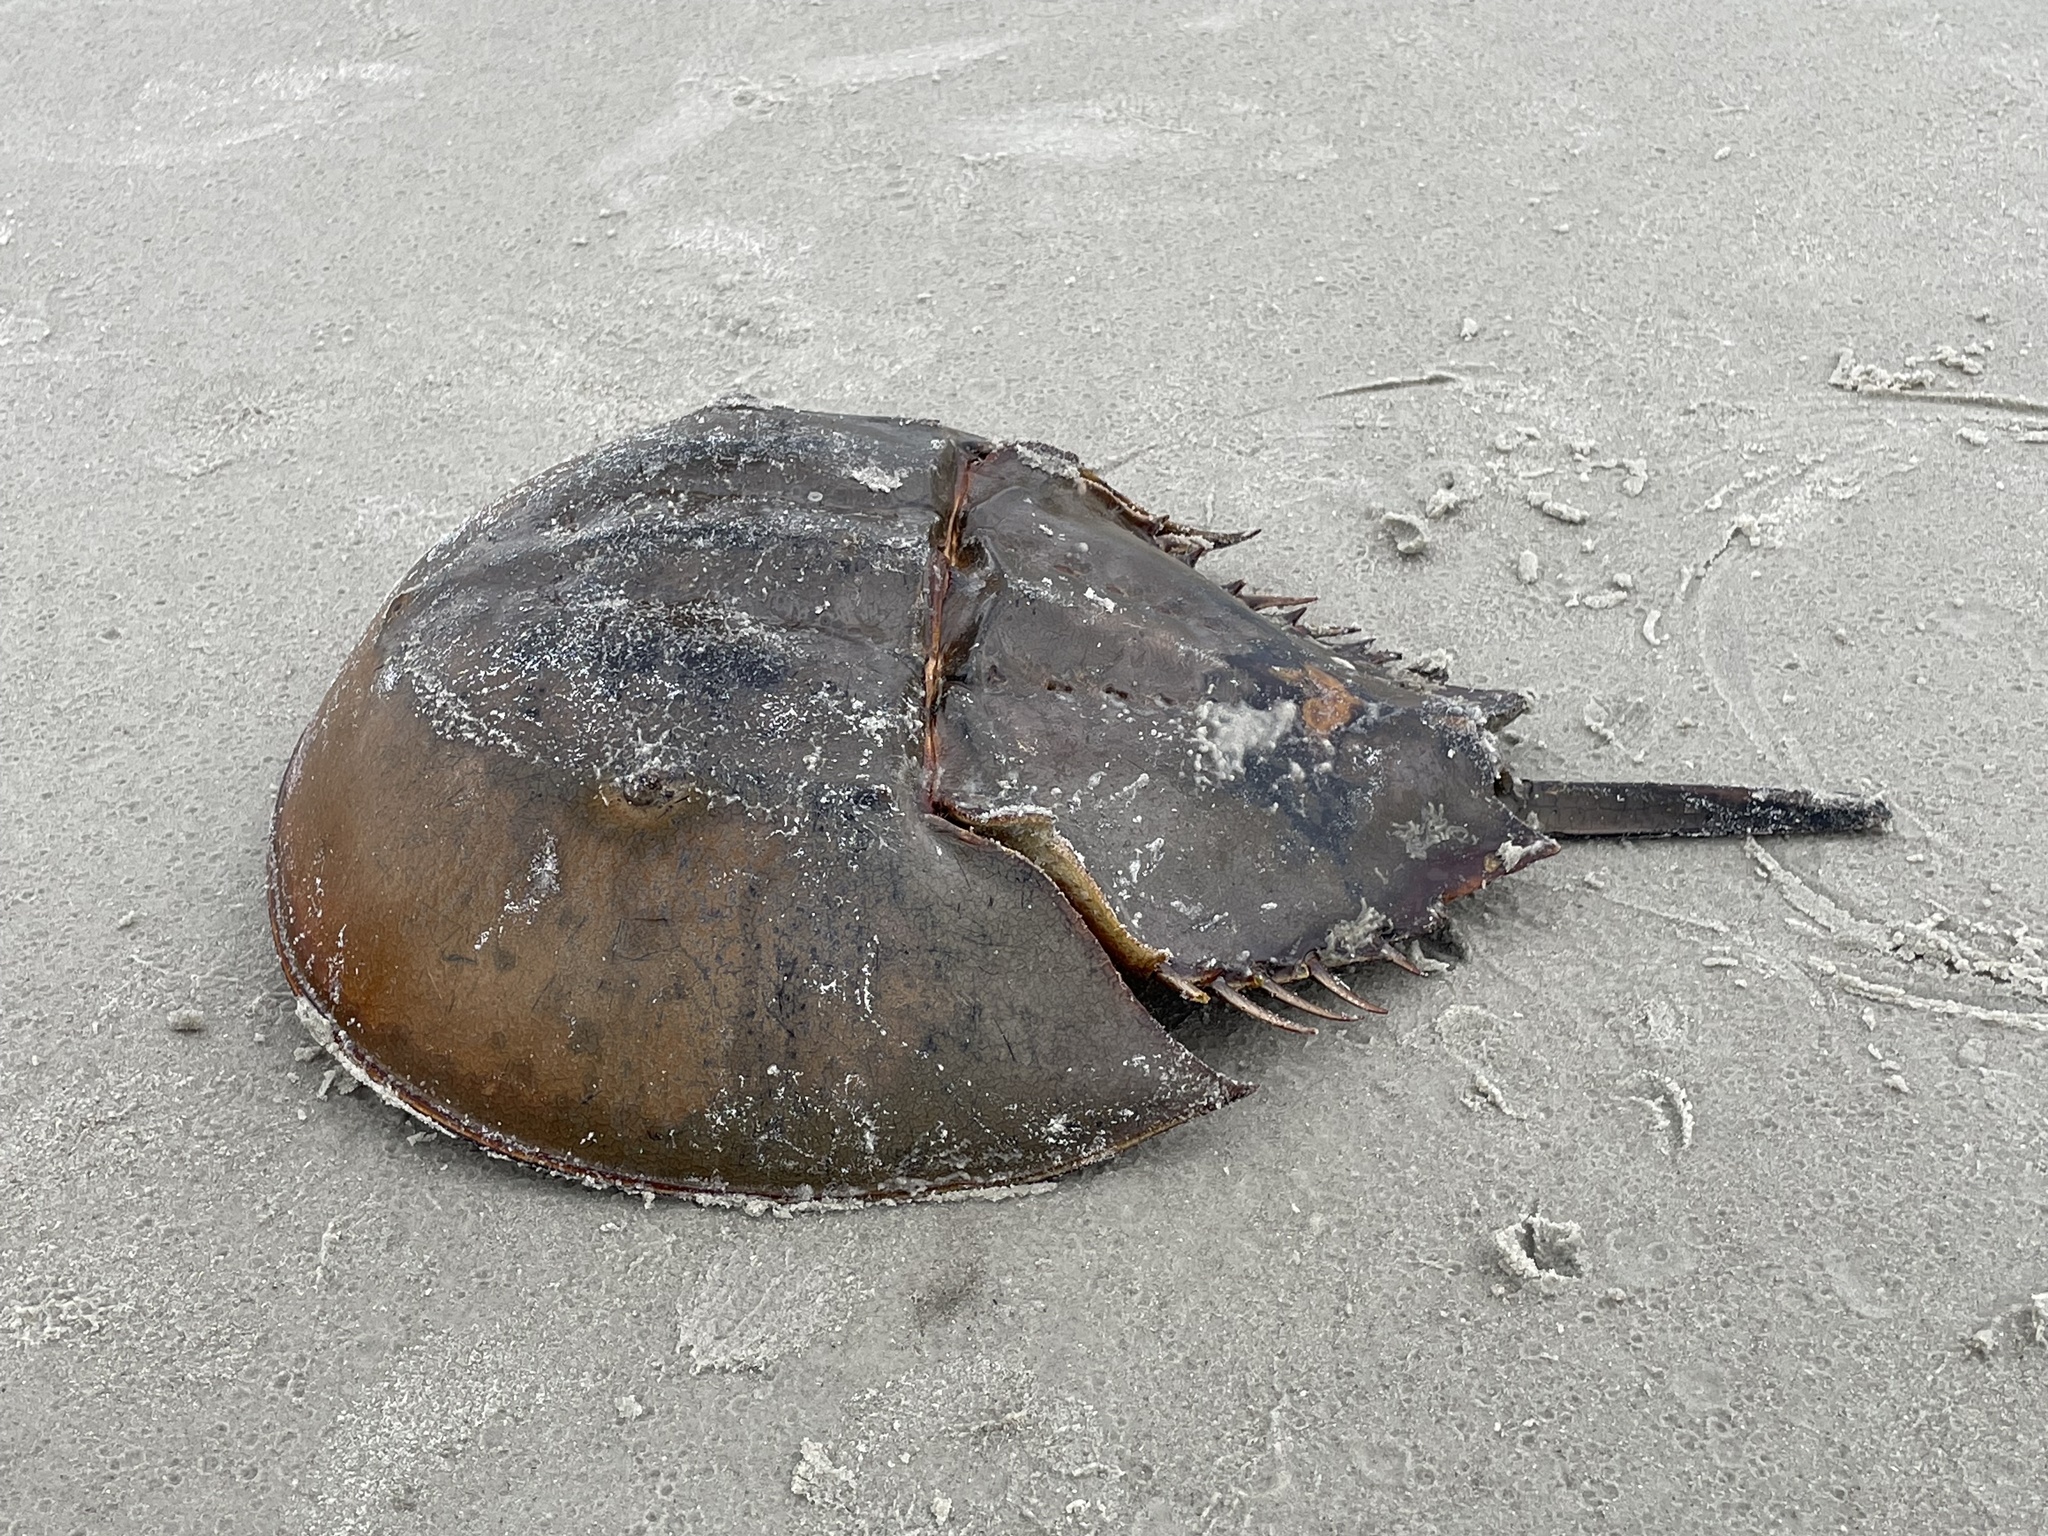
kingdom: Animalia
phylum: Arthropoda
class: Merostomata
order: Xiphosurida
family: Limulidae
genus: Limulus
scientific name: Limulus polyphemus
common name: Horseshoe crab
